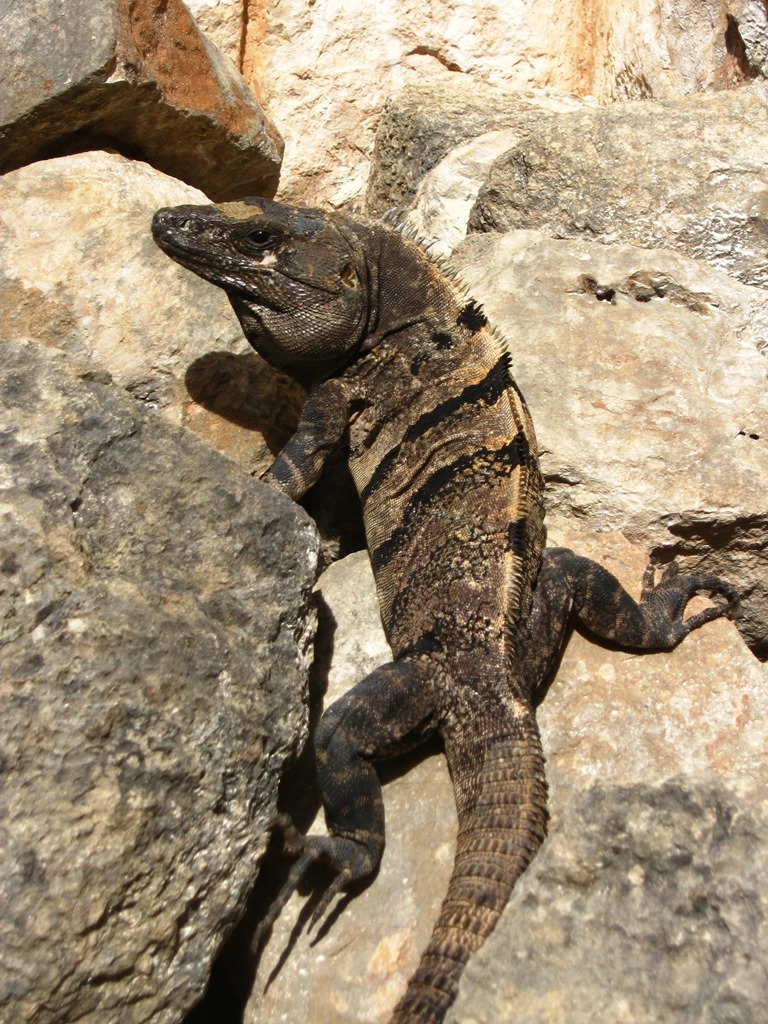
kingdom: Animalia
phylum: Chordata
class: Squamata
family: Iguanidae
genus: Ctenosaura
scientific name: Ctenosaura similis
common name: Black spiny-tailed iguana
